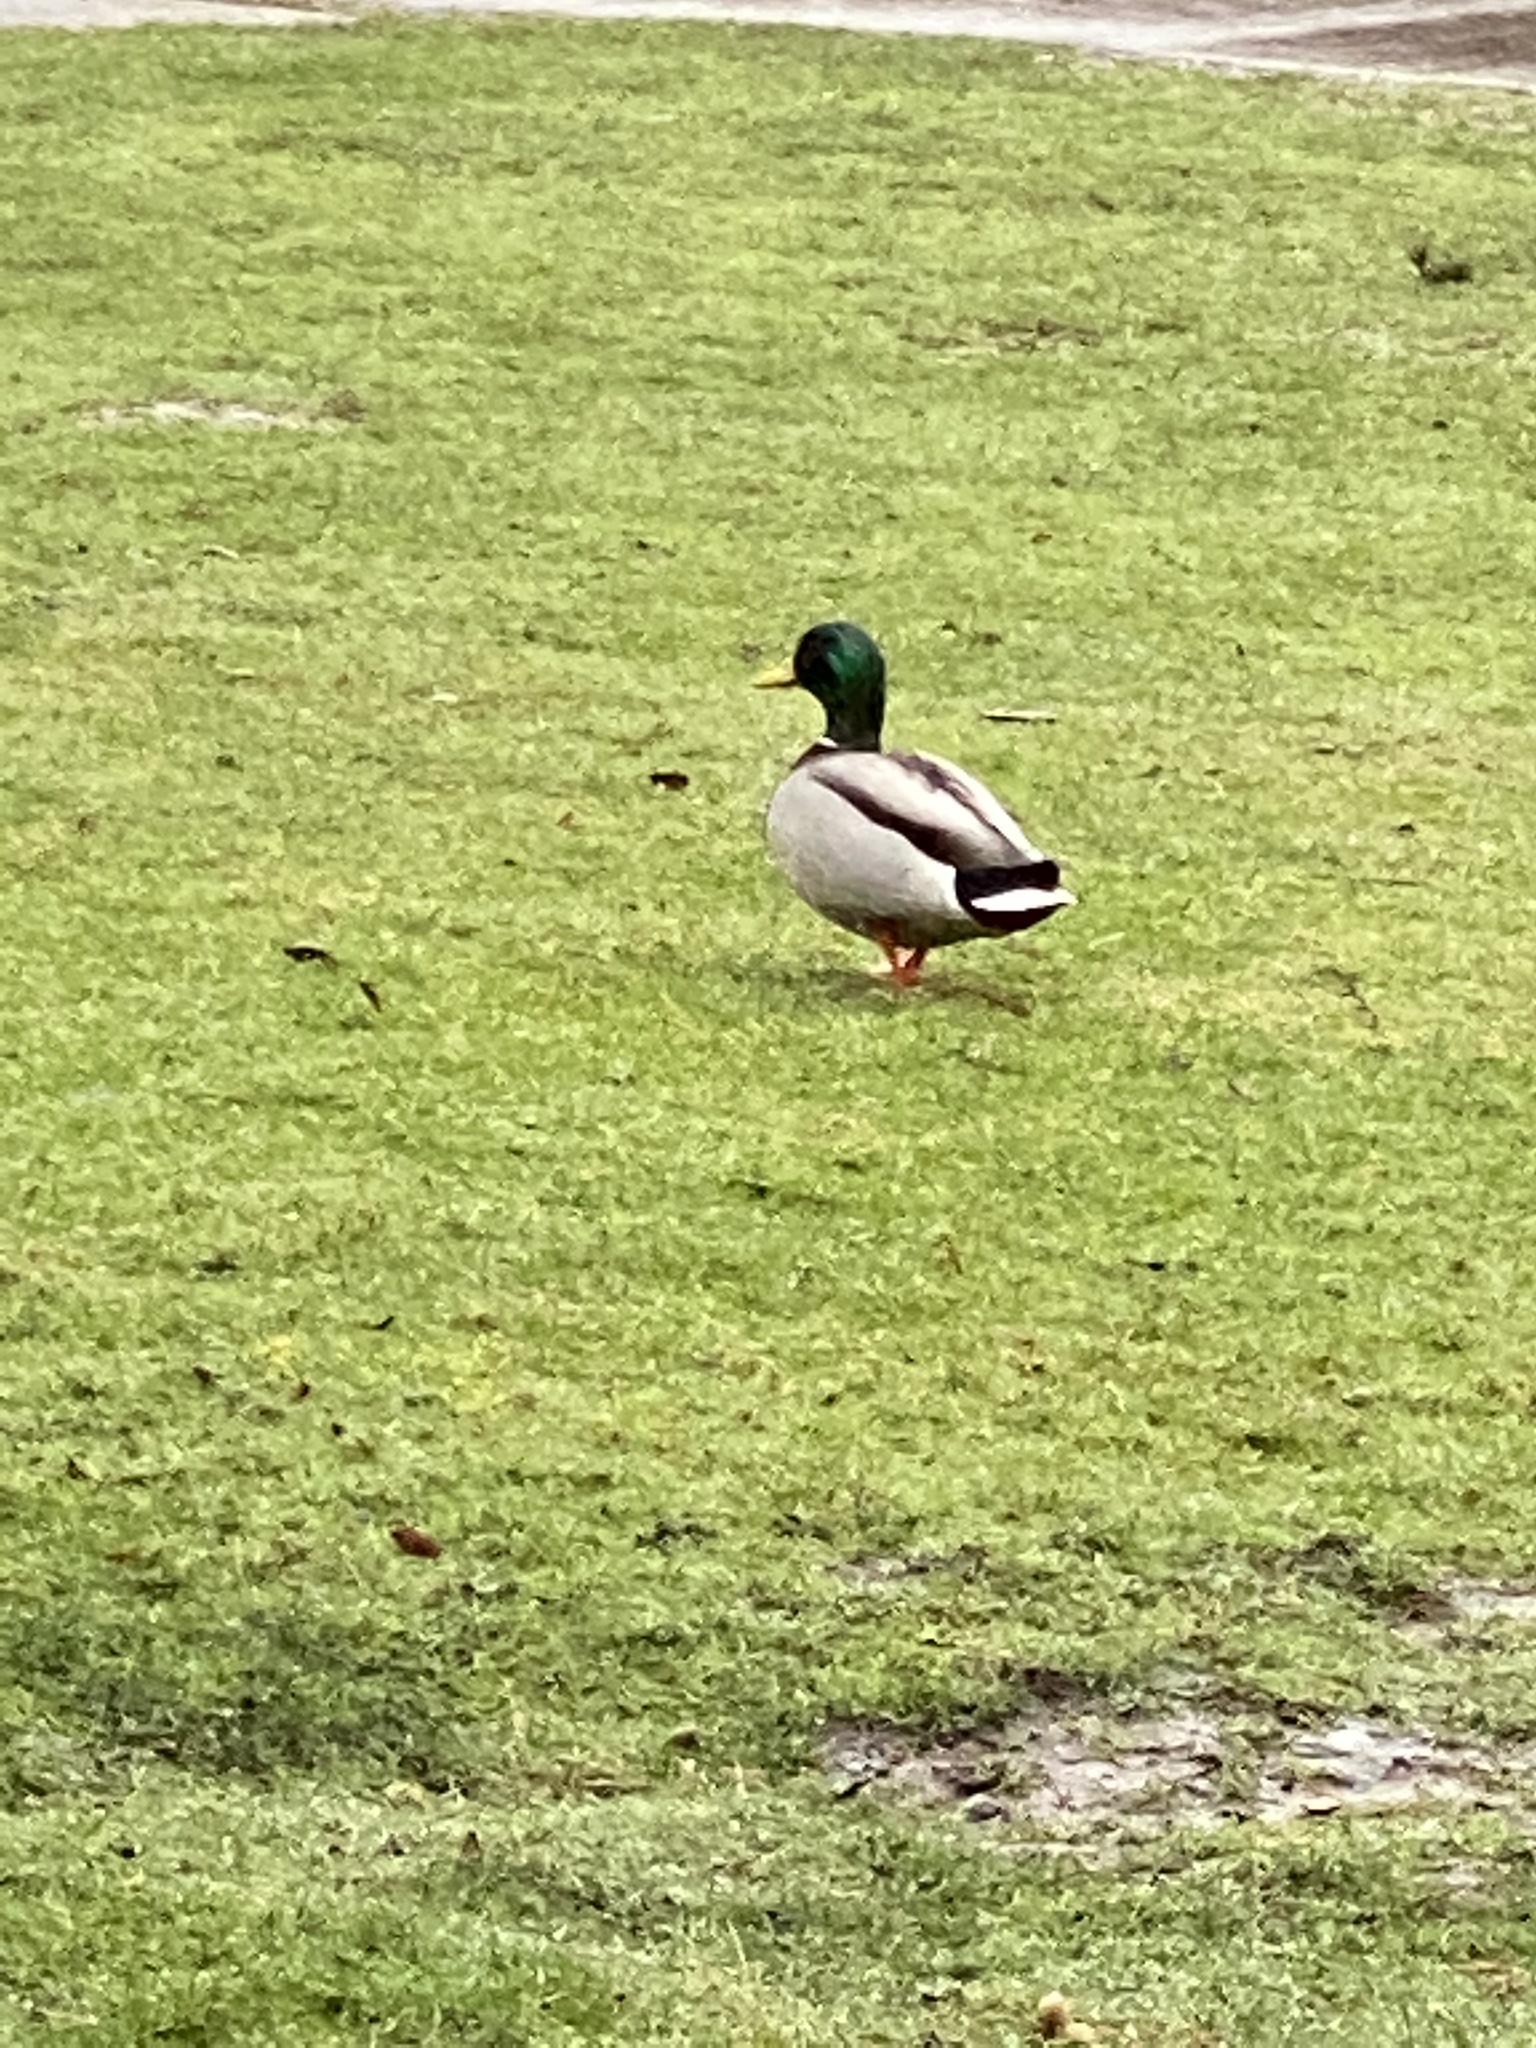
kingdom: Animalia
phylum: Chordata
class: Aves
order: Anseriformes
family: Anatidae
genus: Anas
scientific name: Anas platyrhynchos
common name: Mallard
